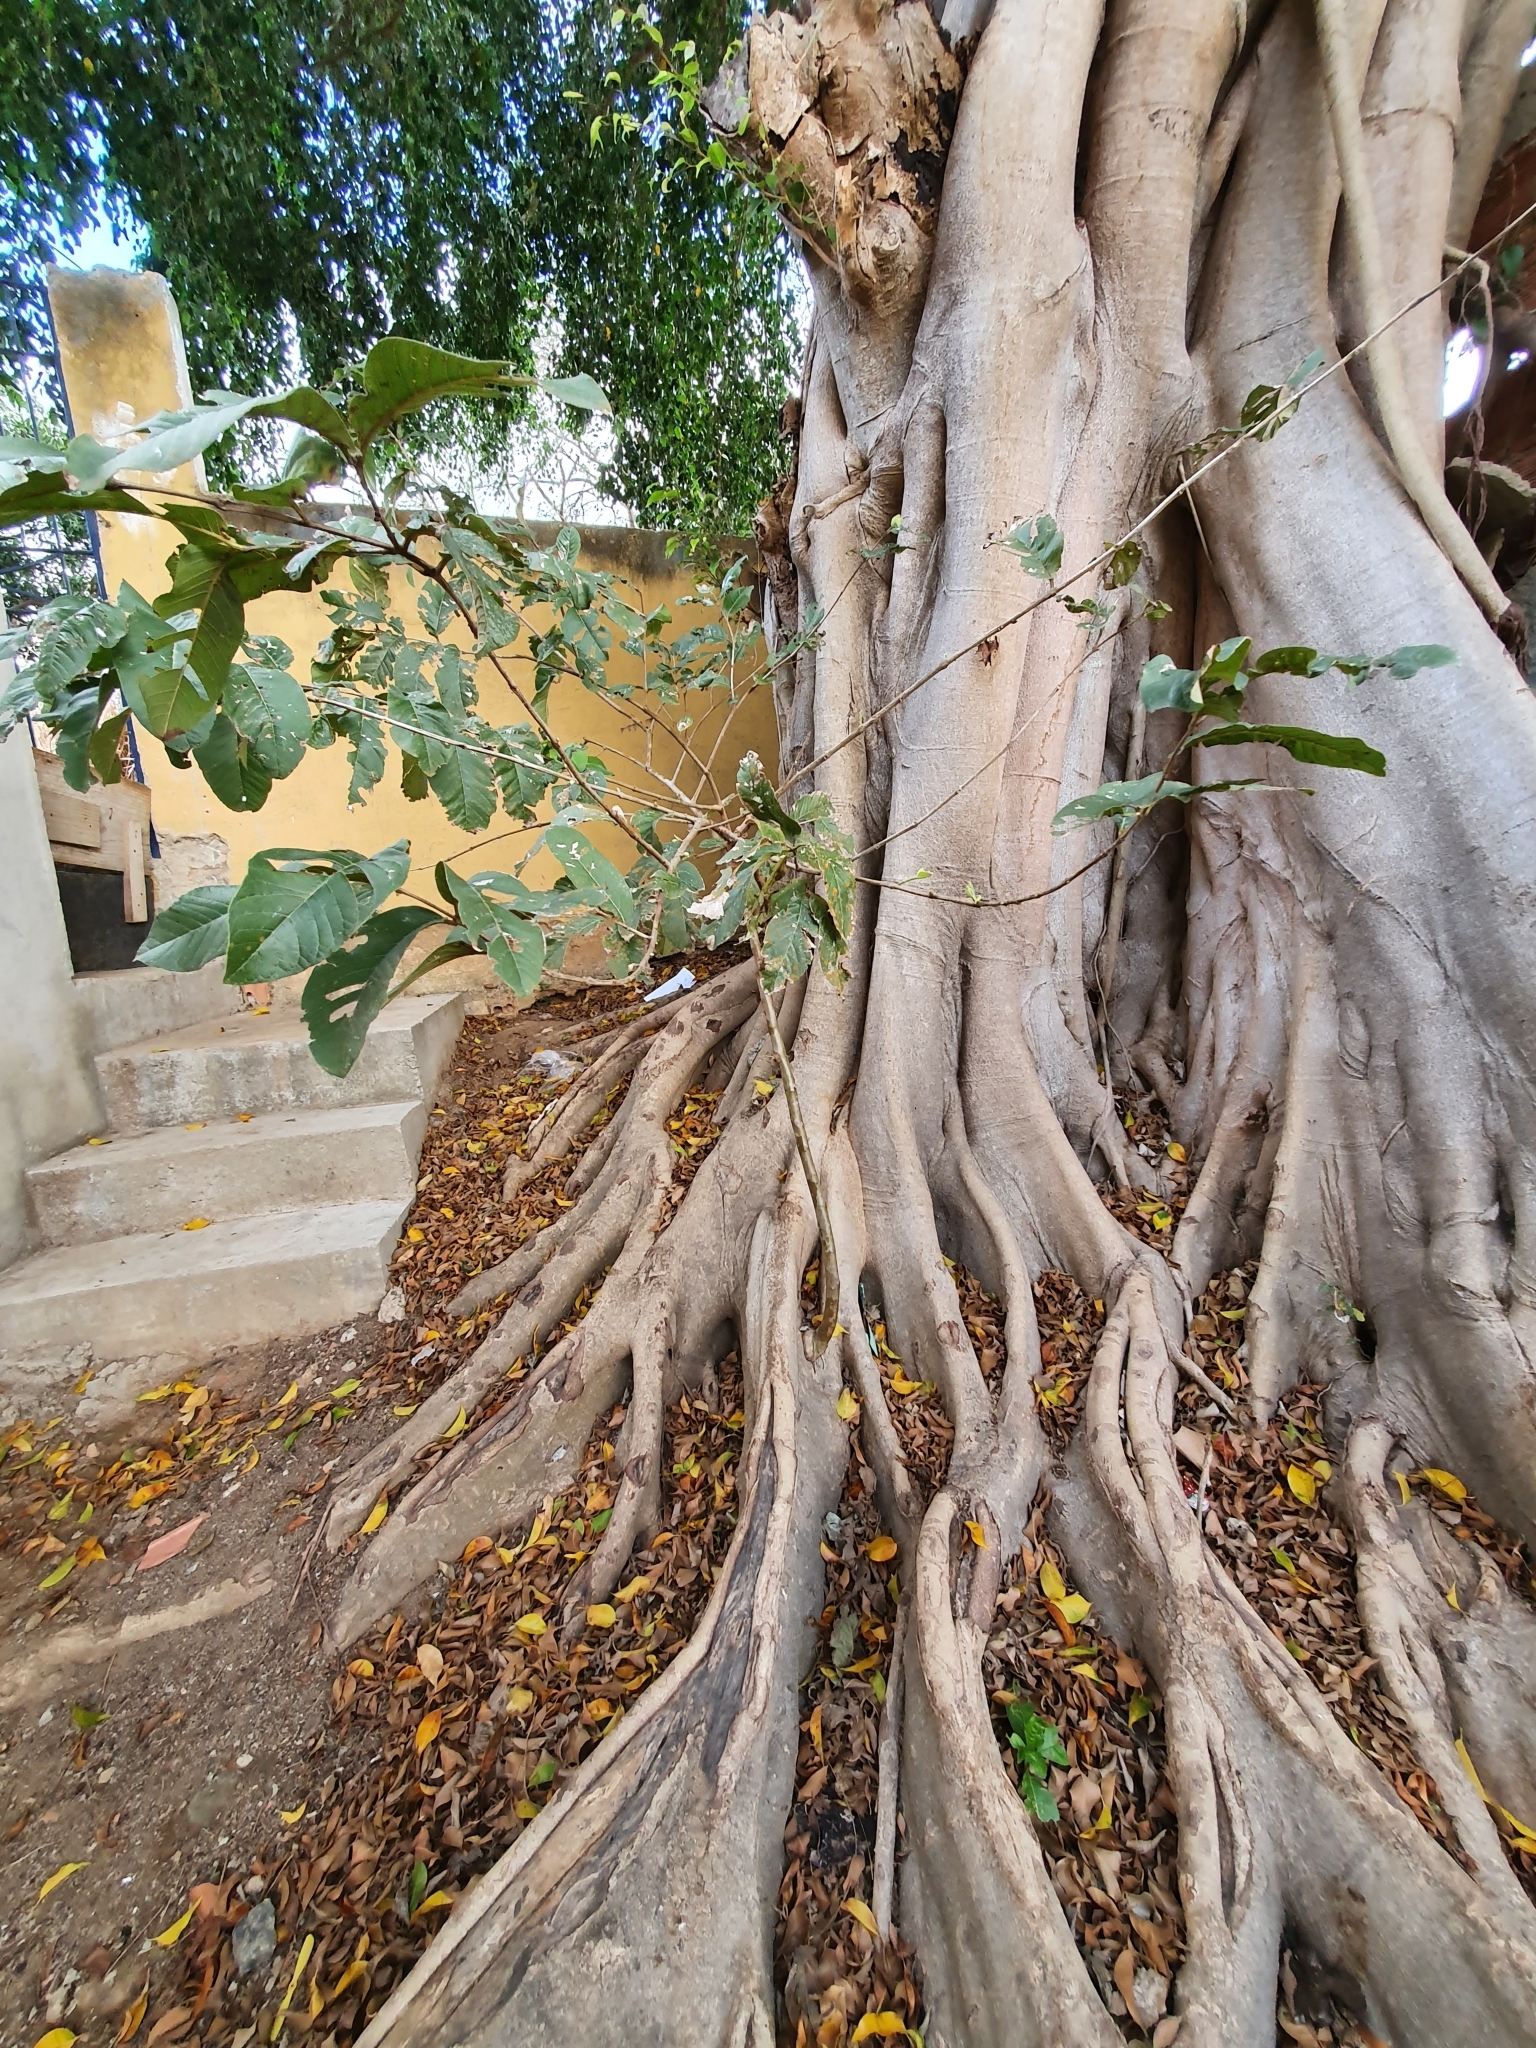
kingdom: Plantae
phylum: Tracheophyta
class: Magnoliopsida
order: Myrtales
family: Myrtaceae
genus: Psidium
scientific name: Psidium guajava
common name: Guava
